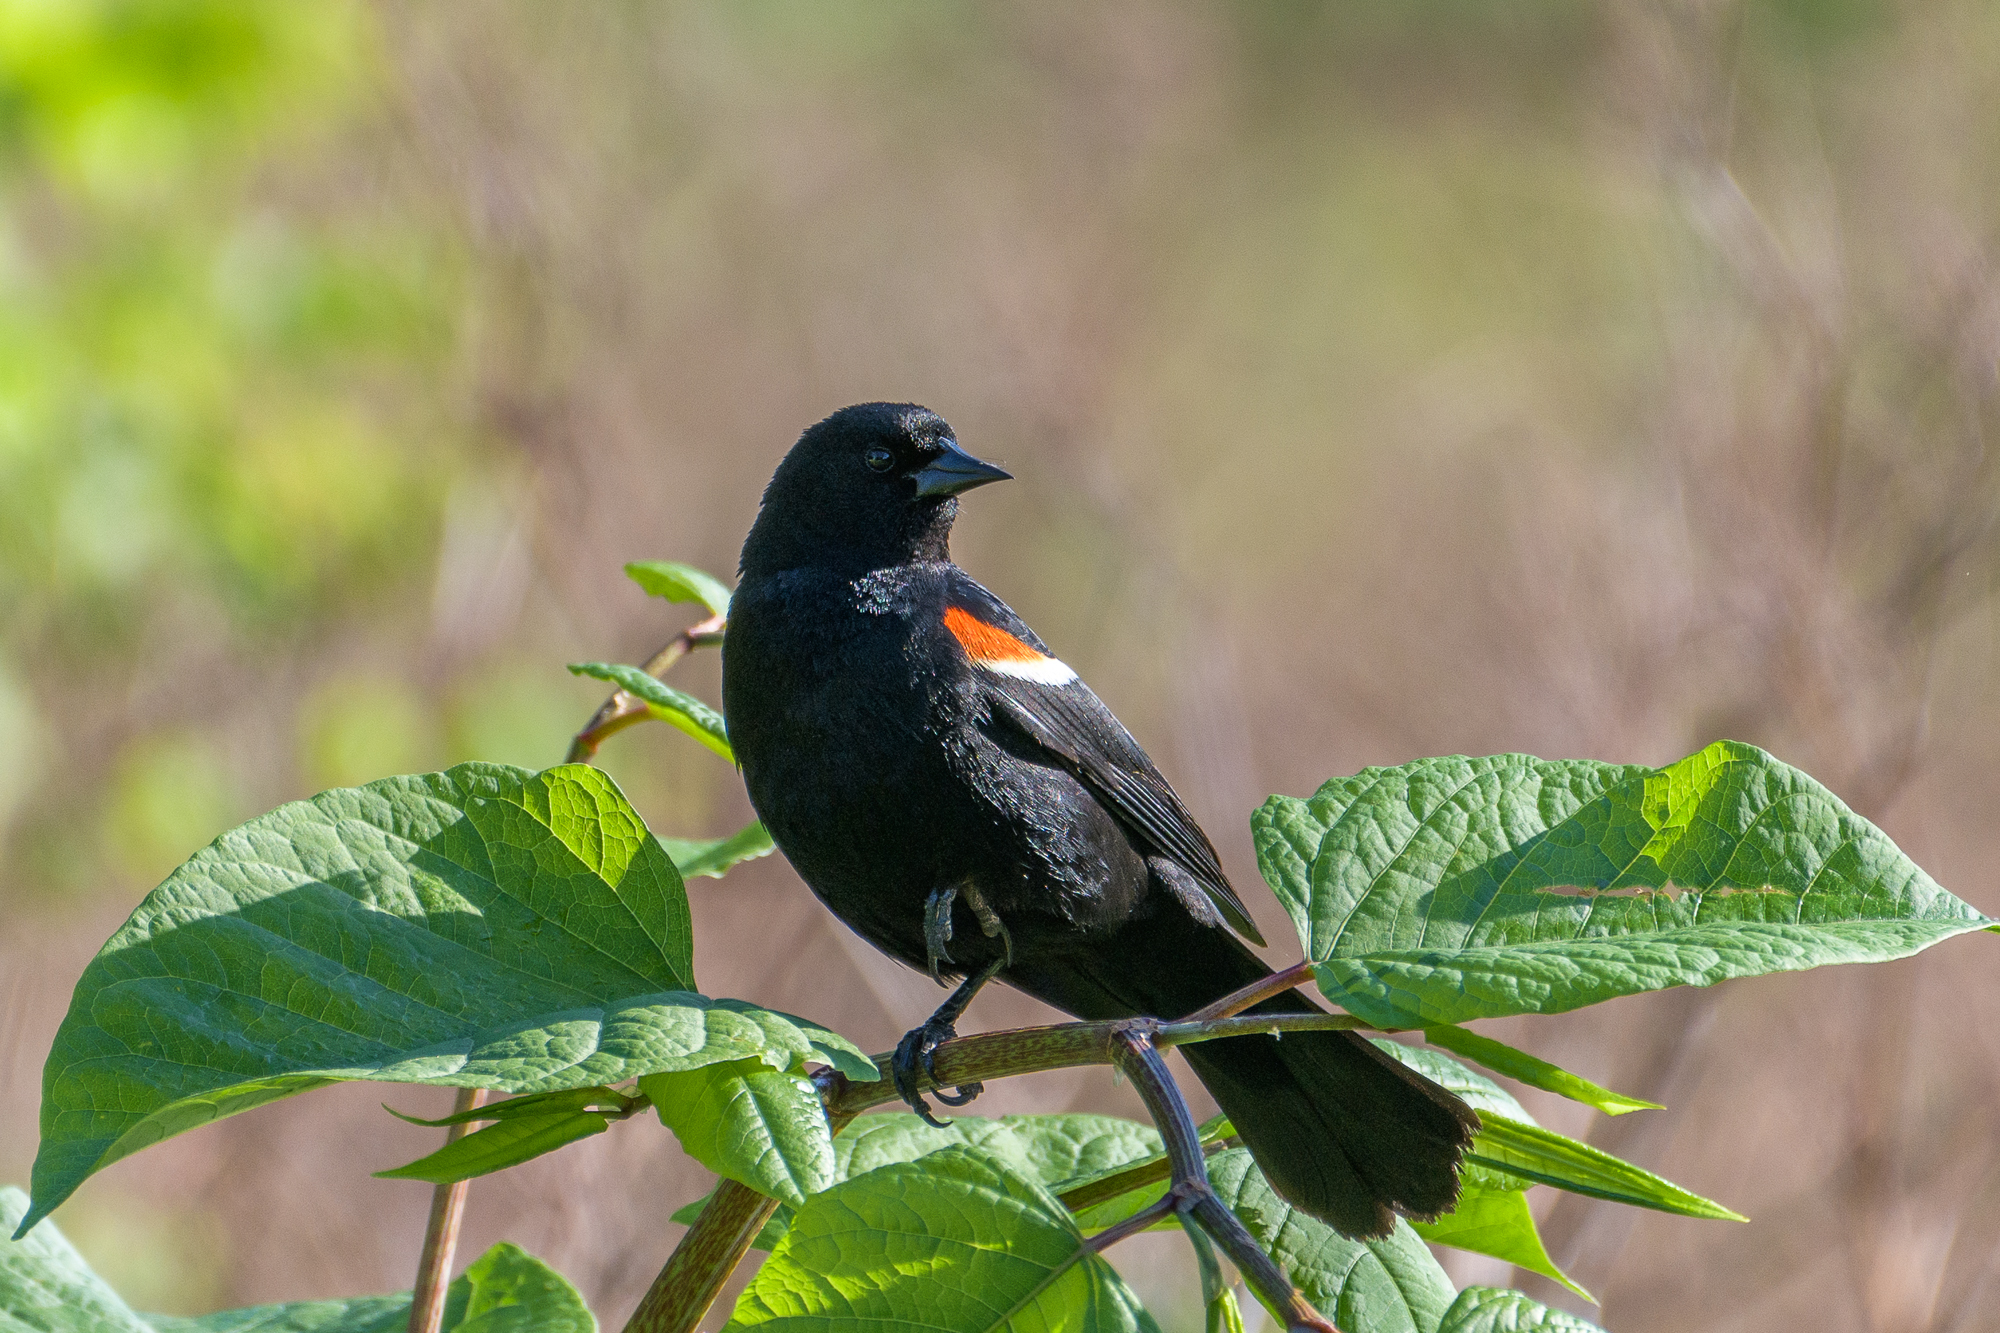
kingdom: Animalia
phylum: Chordata
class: Aves
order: Passeriformes
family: Icteridae
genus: Agelaius
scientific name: Agelaius phoeniceus
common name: Red-winged blackbird
